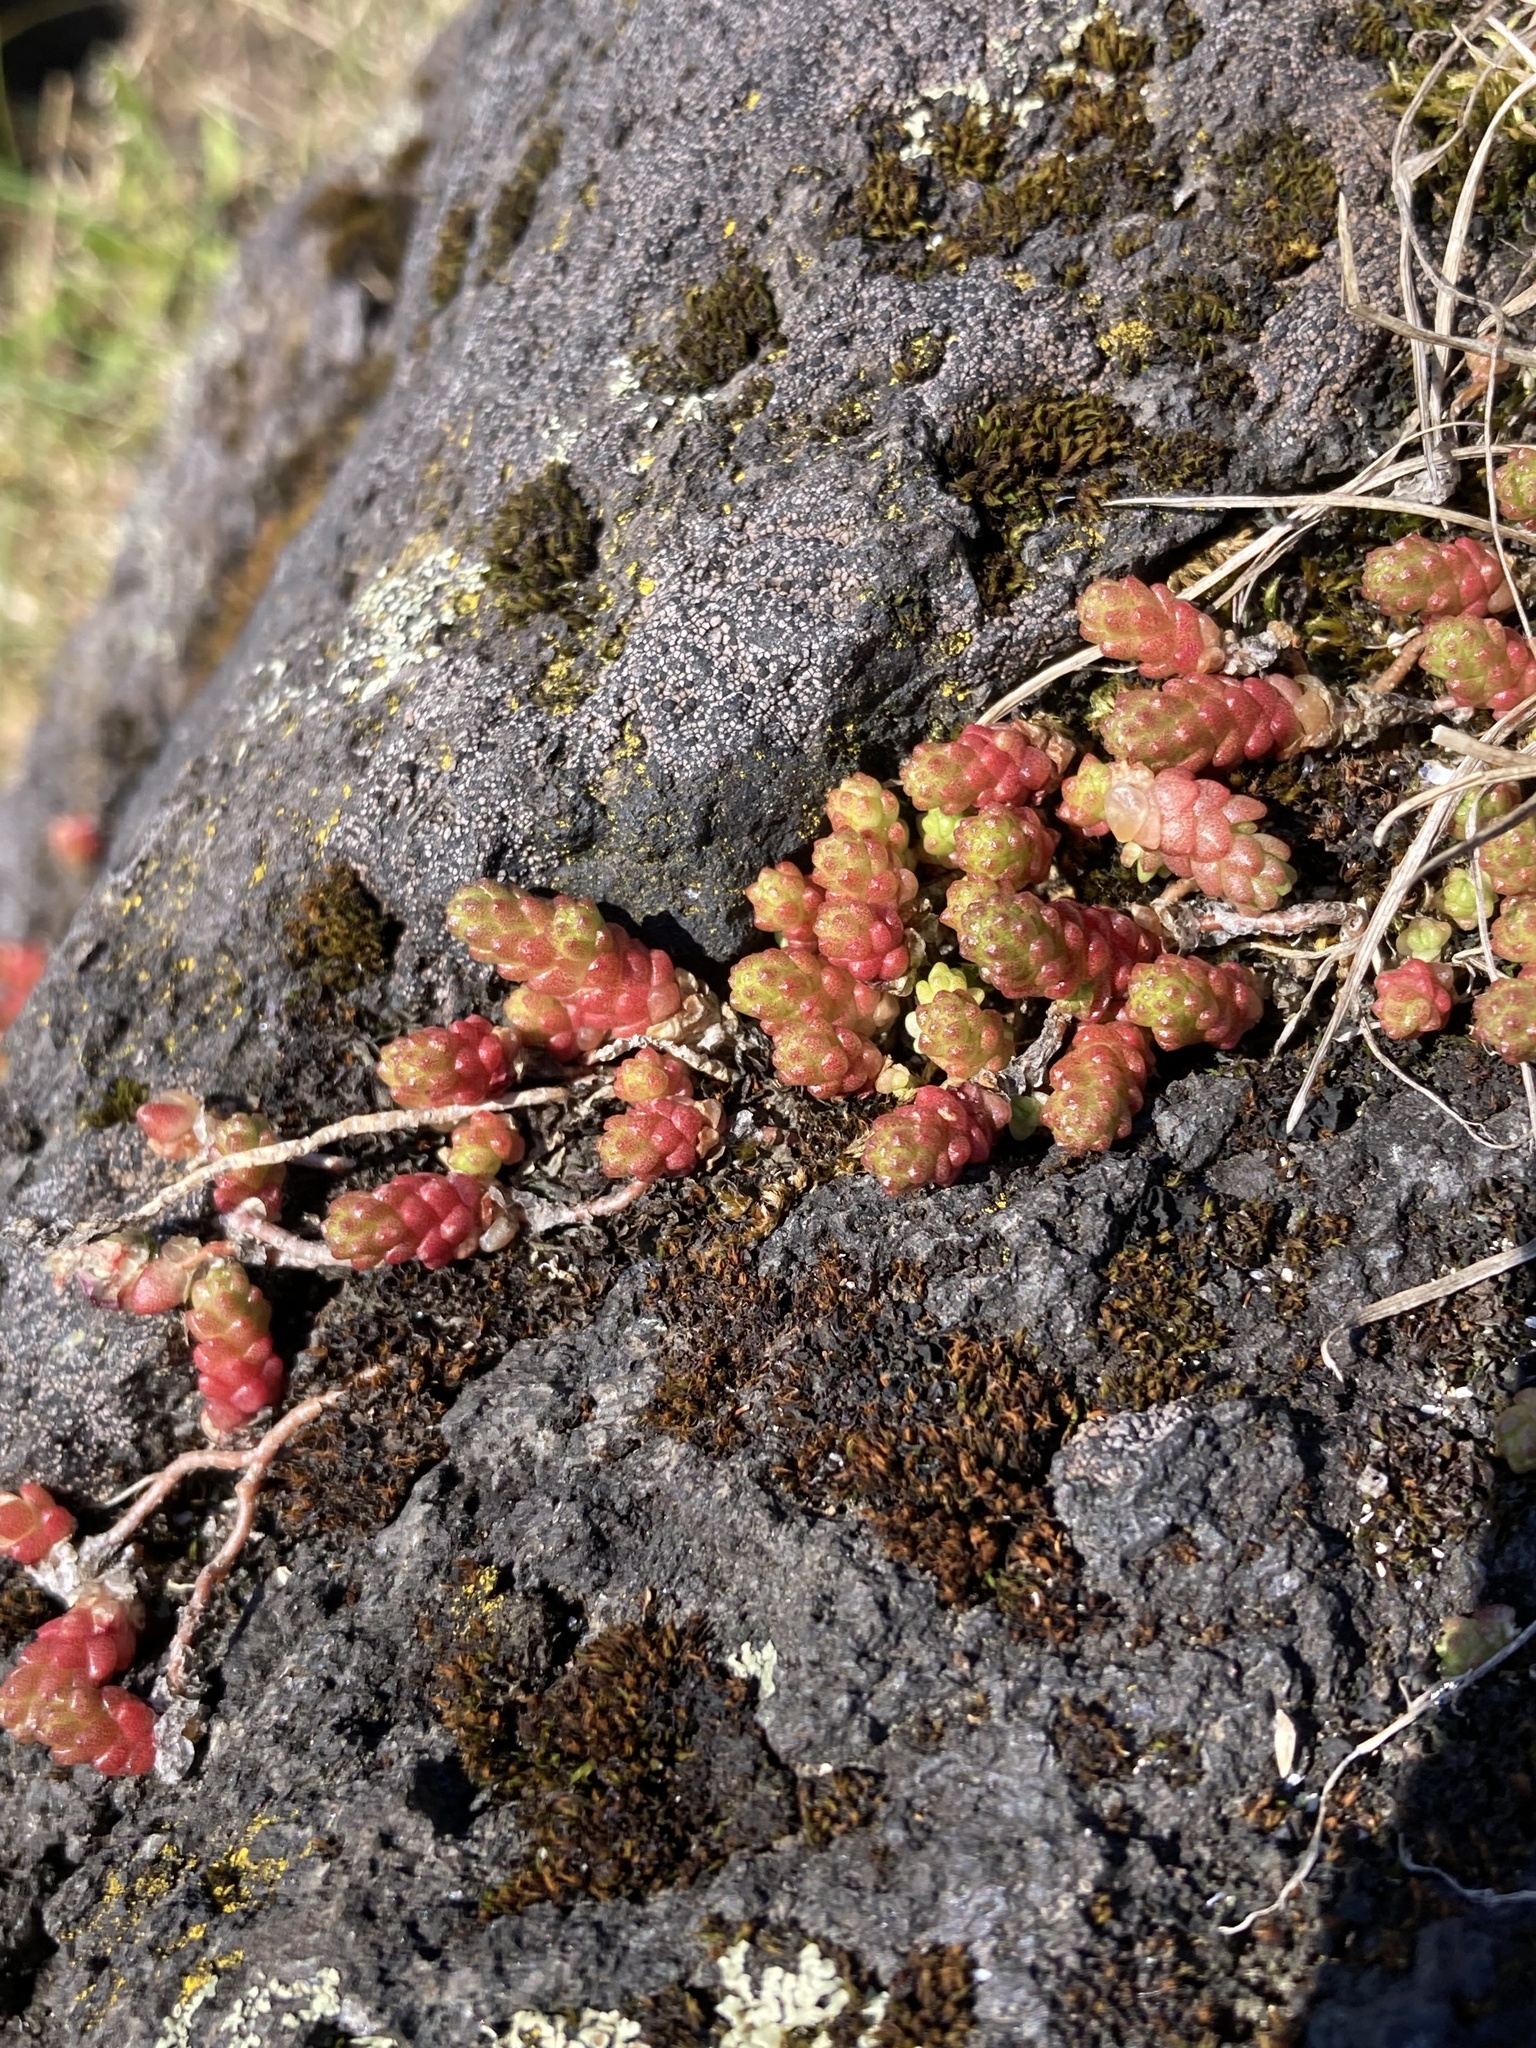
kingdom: Plantae
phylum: Tracheophyta
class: Magnoliopsida
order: Saxifragales
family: Crassulaceae
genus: Sedum
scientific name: Sedum acre
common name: Biting stonecrop
